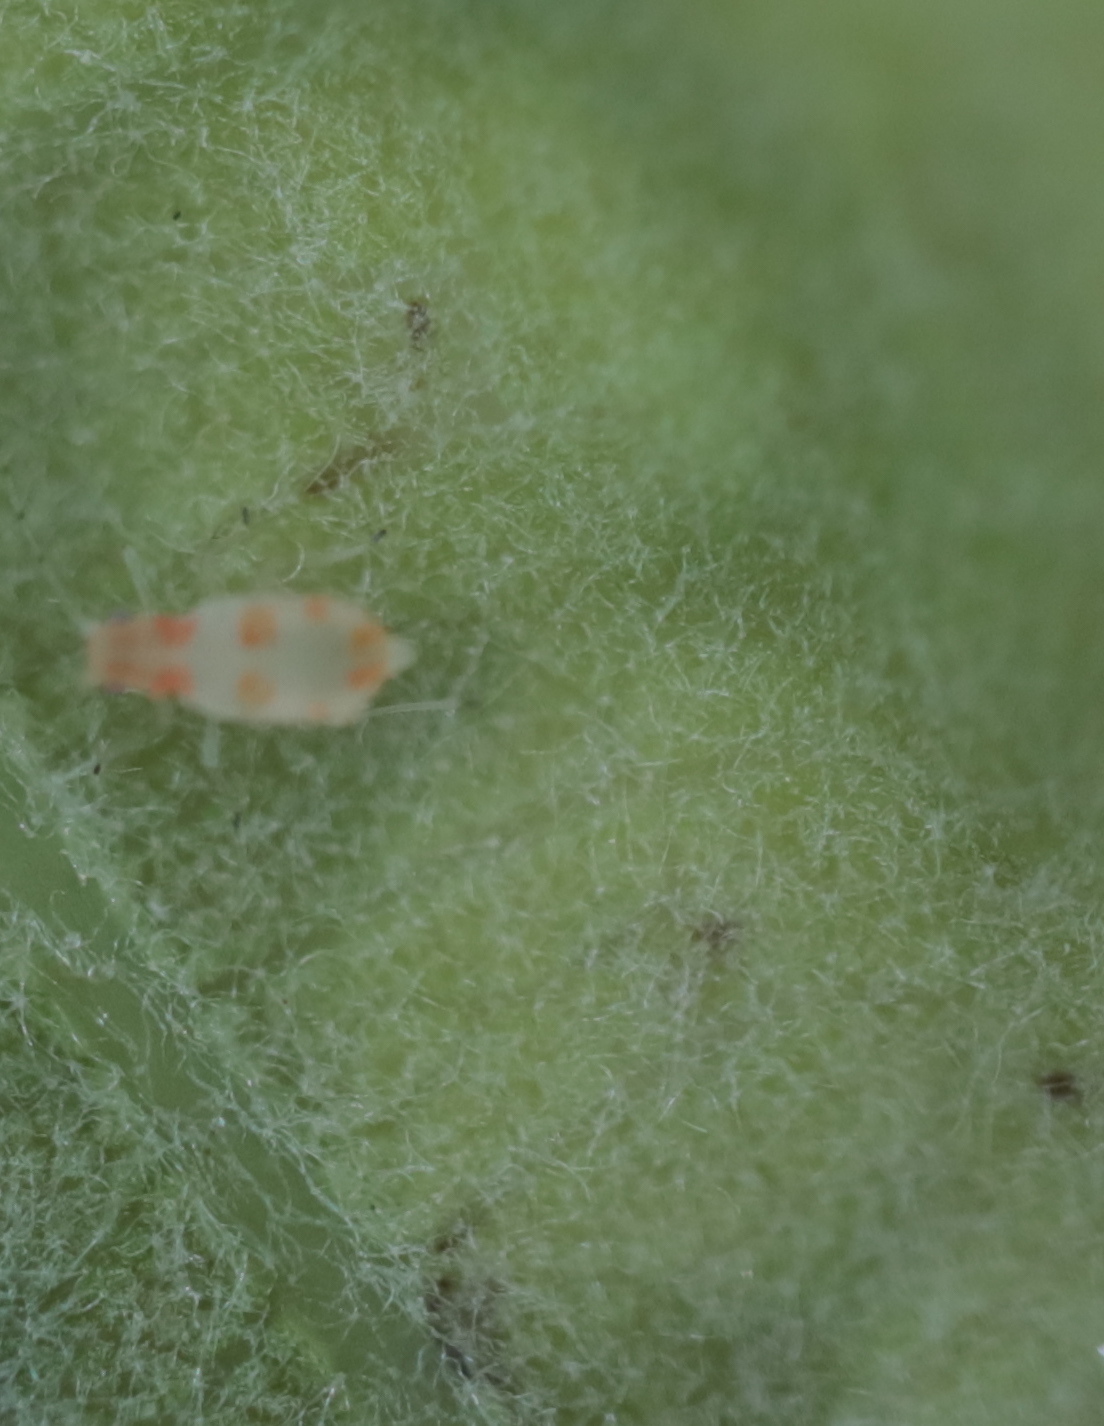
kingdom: Animalia
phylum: Arthropoda
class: Insecta
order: Hymenoptera
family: Cynipidae
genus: Callirhytis
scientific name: Callirhytis
